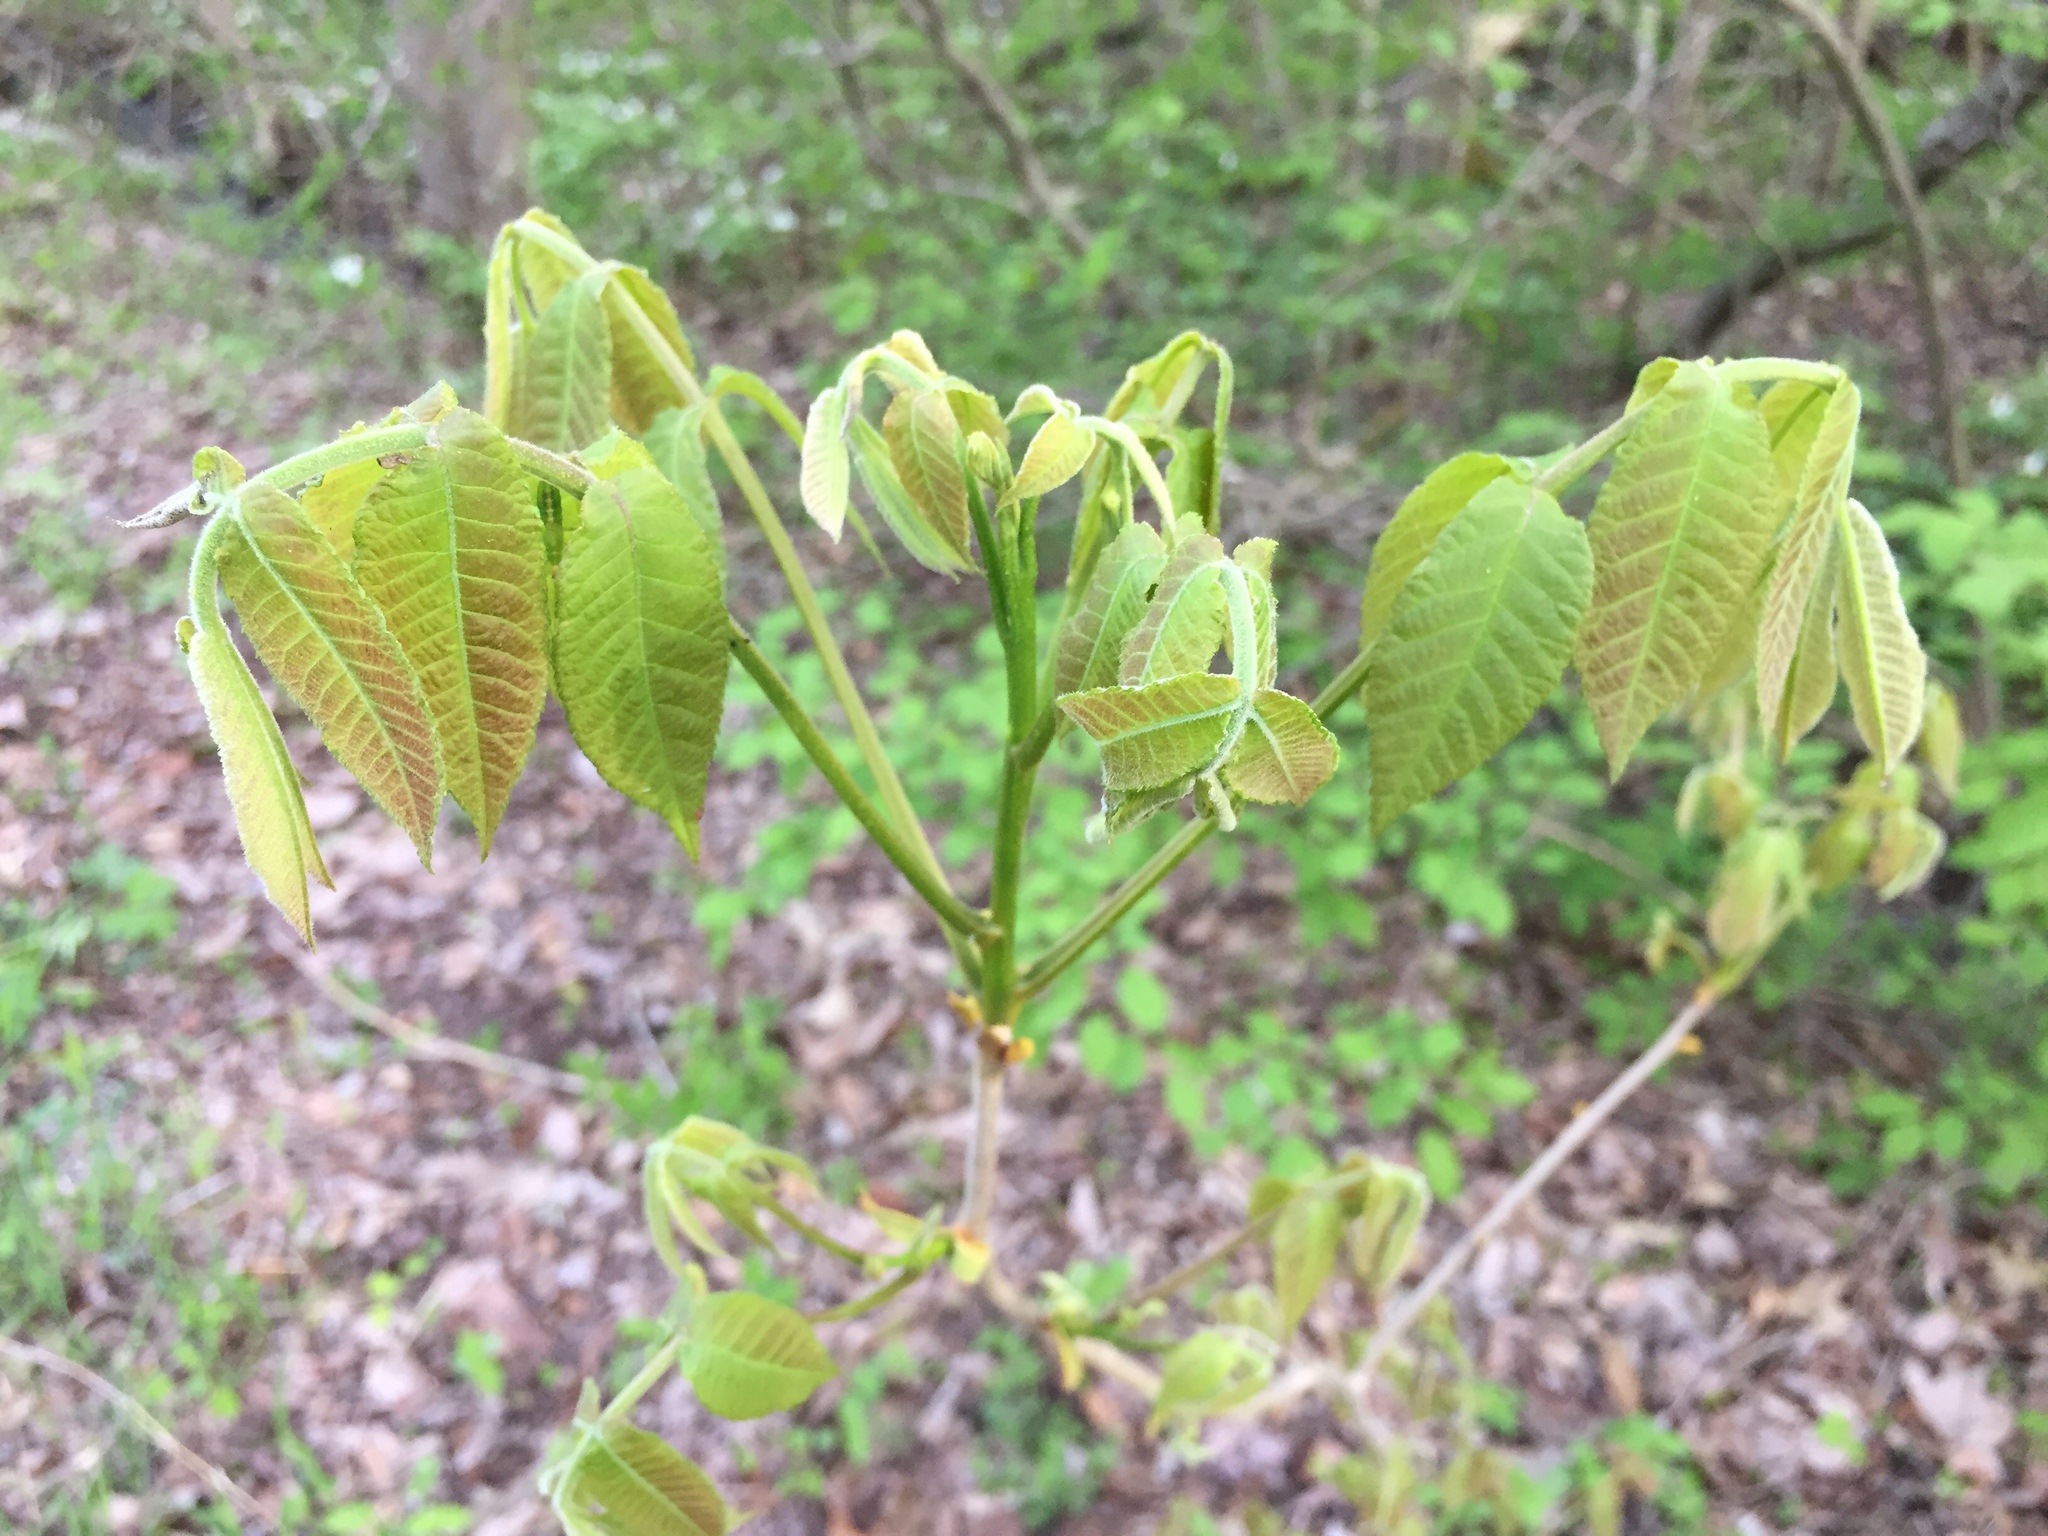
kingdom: Plantae
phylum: Tracheophyta
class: Magnoliopsida
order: Fagales
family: Juglandaceae
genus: Carya
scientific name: Carya cordiformis
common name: Bitternut hickory
